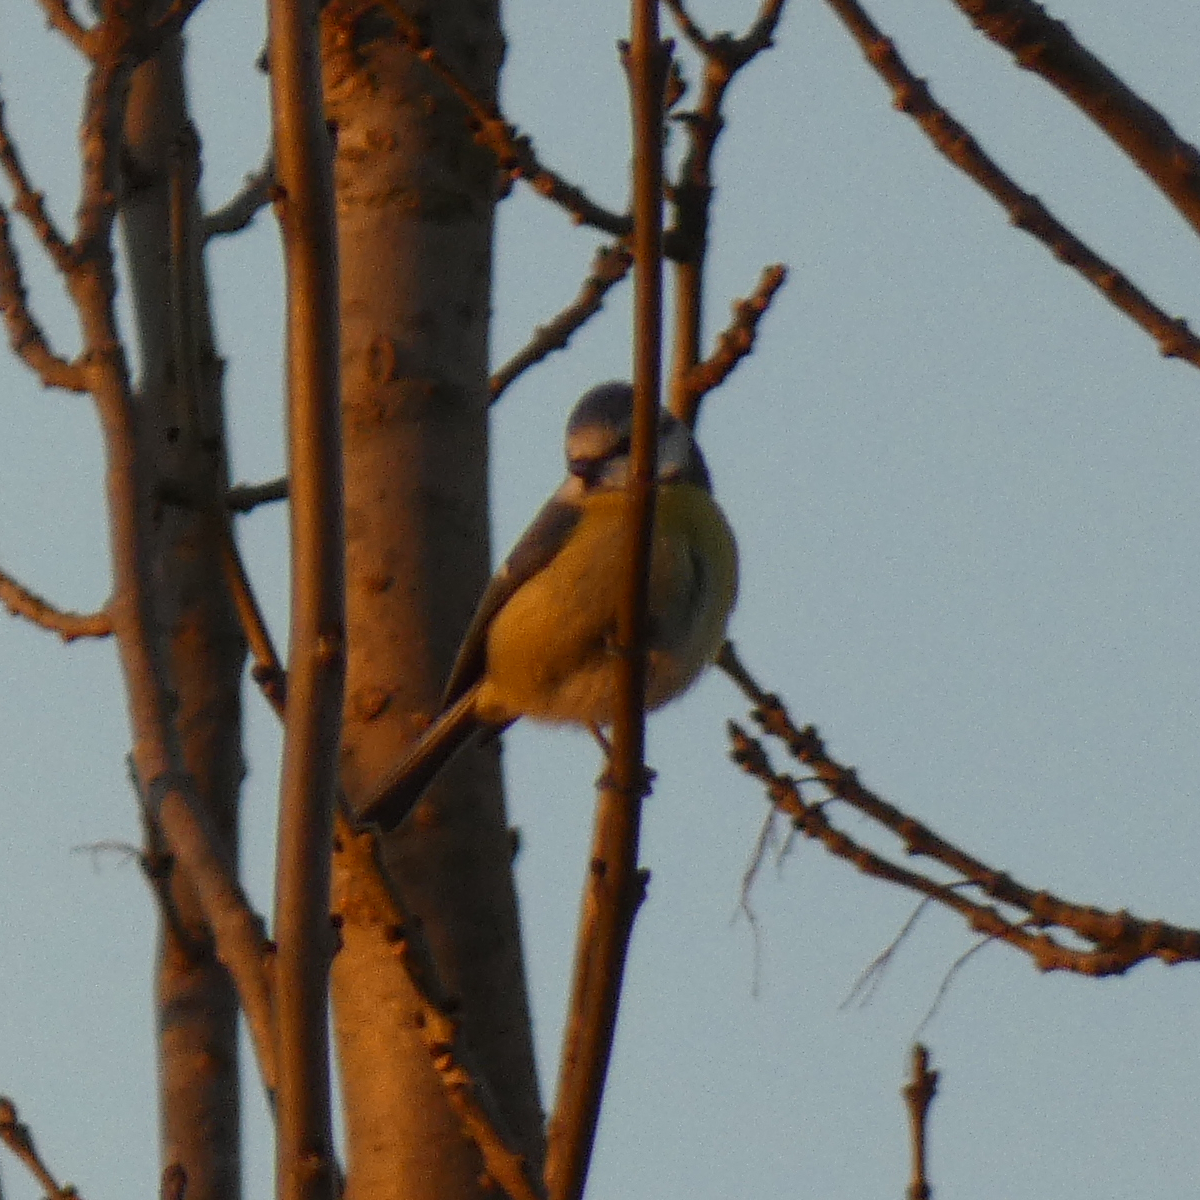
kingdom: Animalia
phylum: Chordata
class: Aves
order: Passeriformes
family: Paridae
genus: Cyanistes
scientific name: Cyanistes caeruleus
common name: Eurasian blue tit
